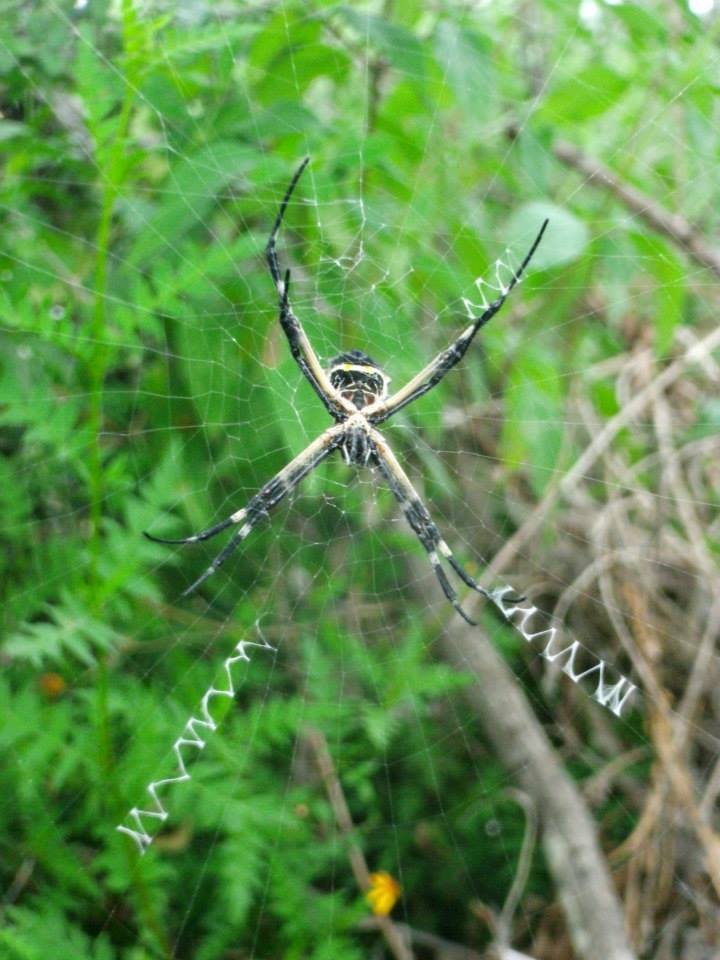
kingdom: Animalia
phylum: Arthropoda
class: Arachnida
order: Araneae
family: Araneidae
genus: Argiope
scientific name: Argiope argentata
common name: Orb weavers
